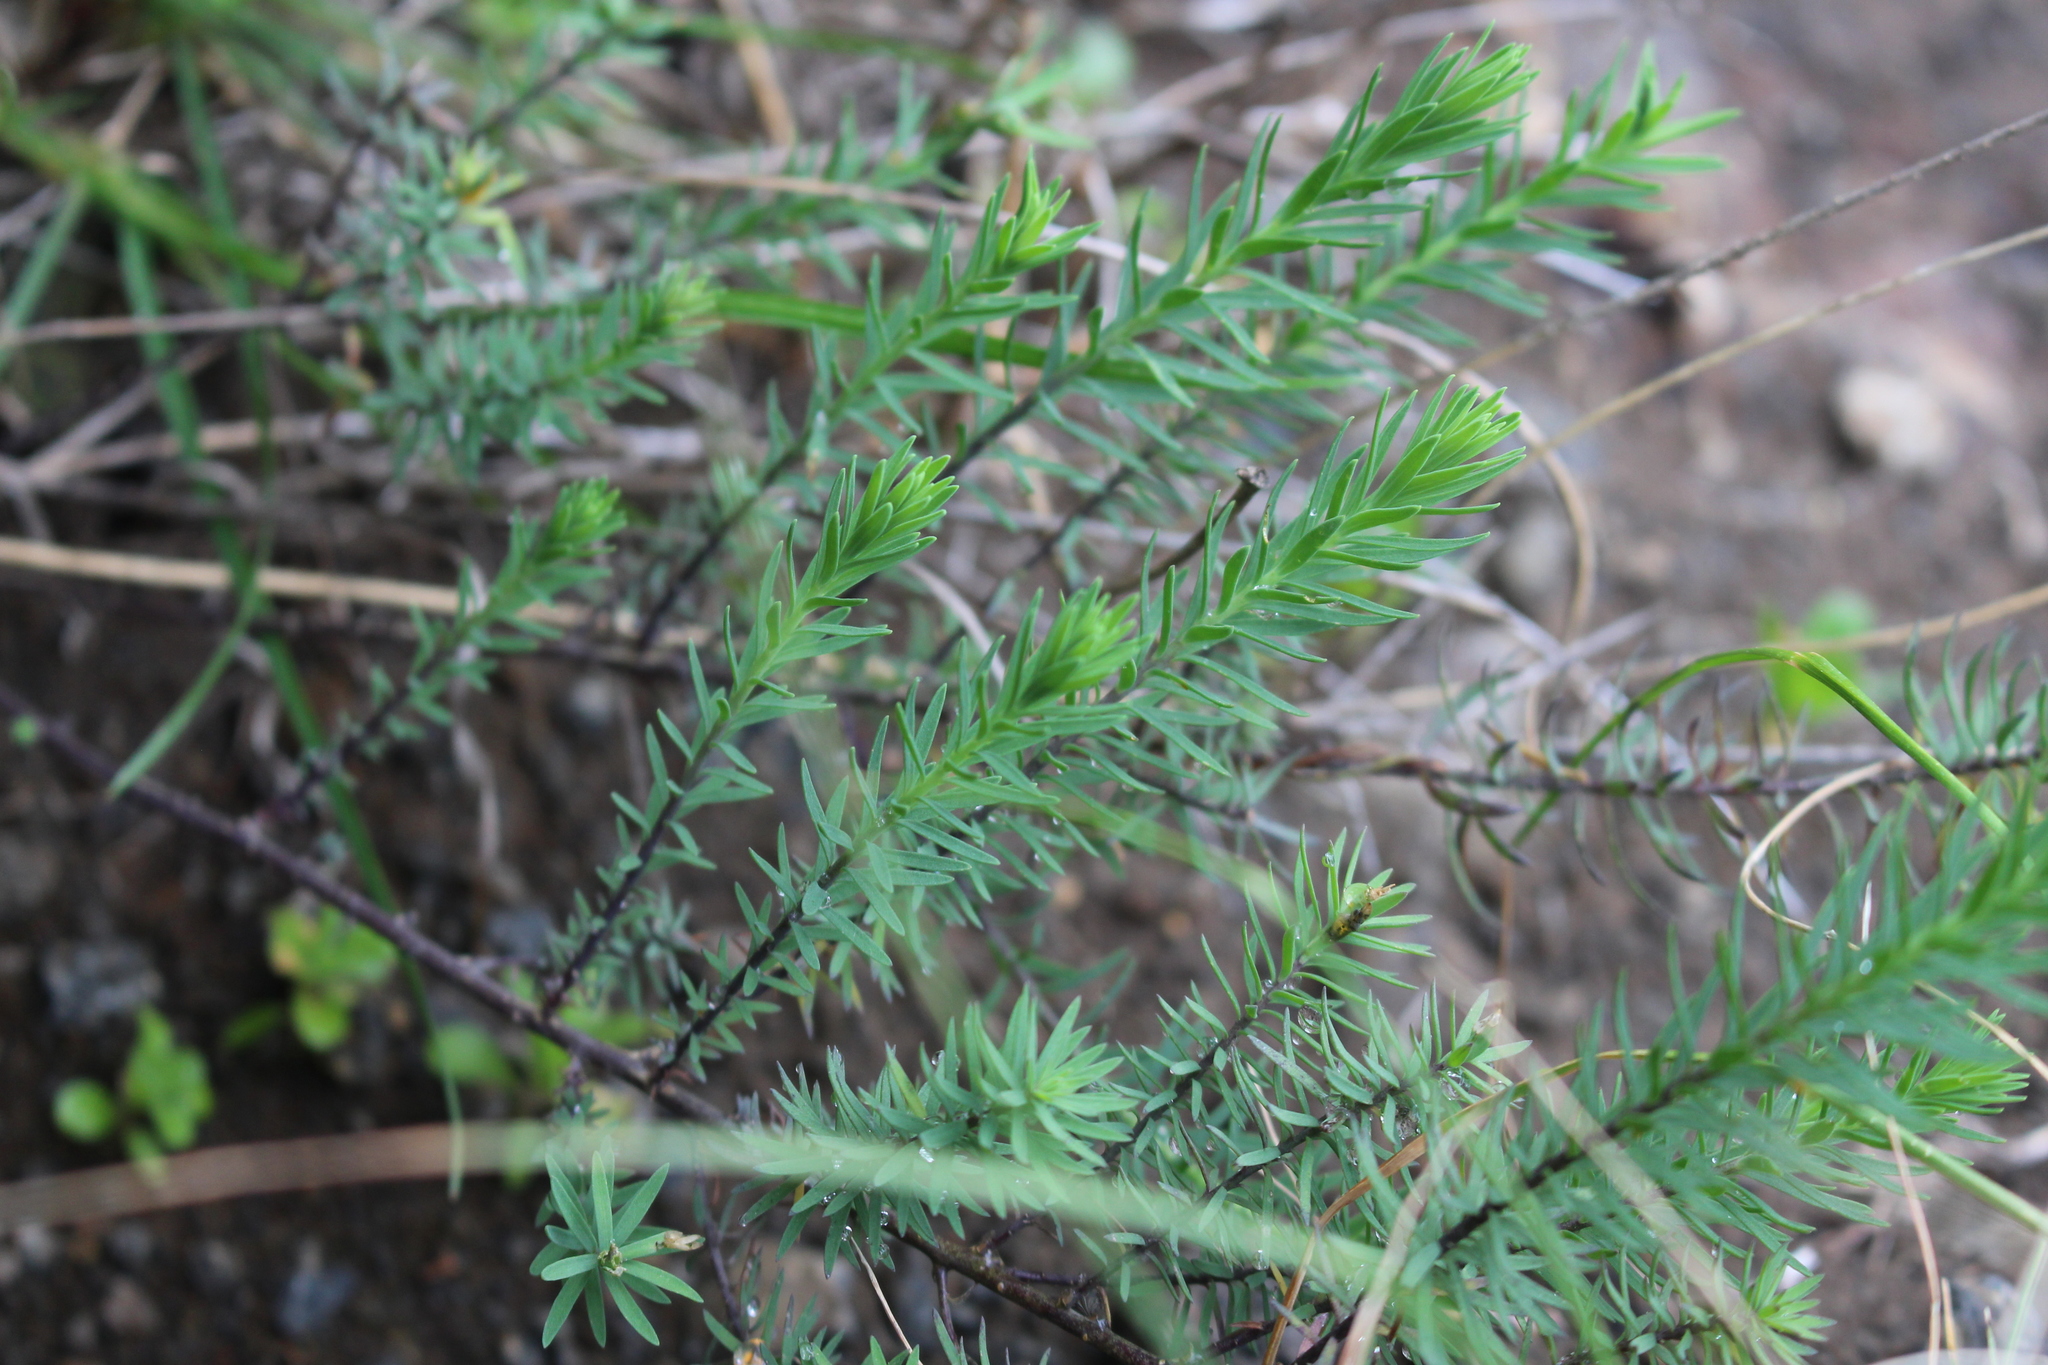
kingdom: Plantae
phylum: Tracheophyta
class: Magnoliopsida
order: Malpighiales
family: Linaceae
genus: Linum
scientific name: Linum monogynum
